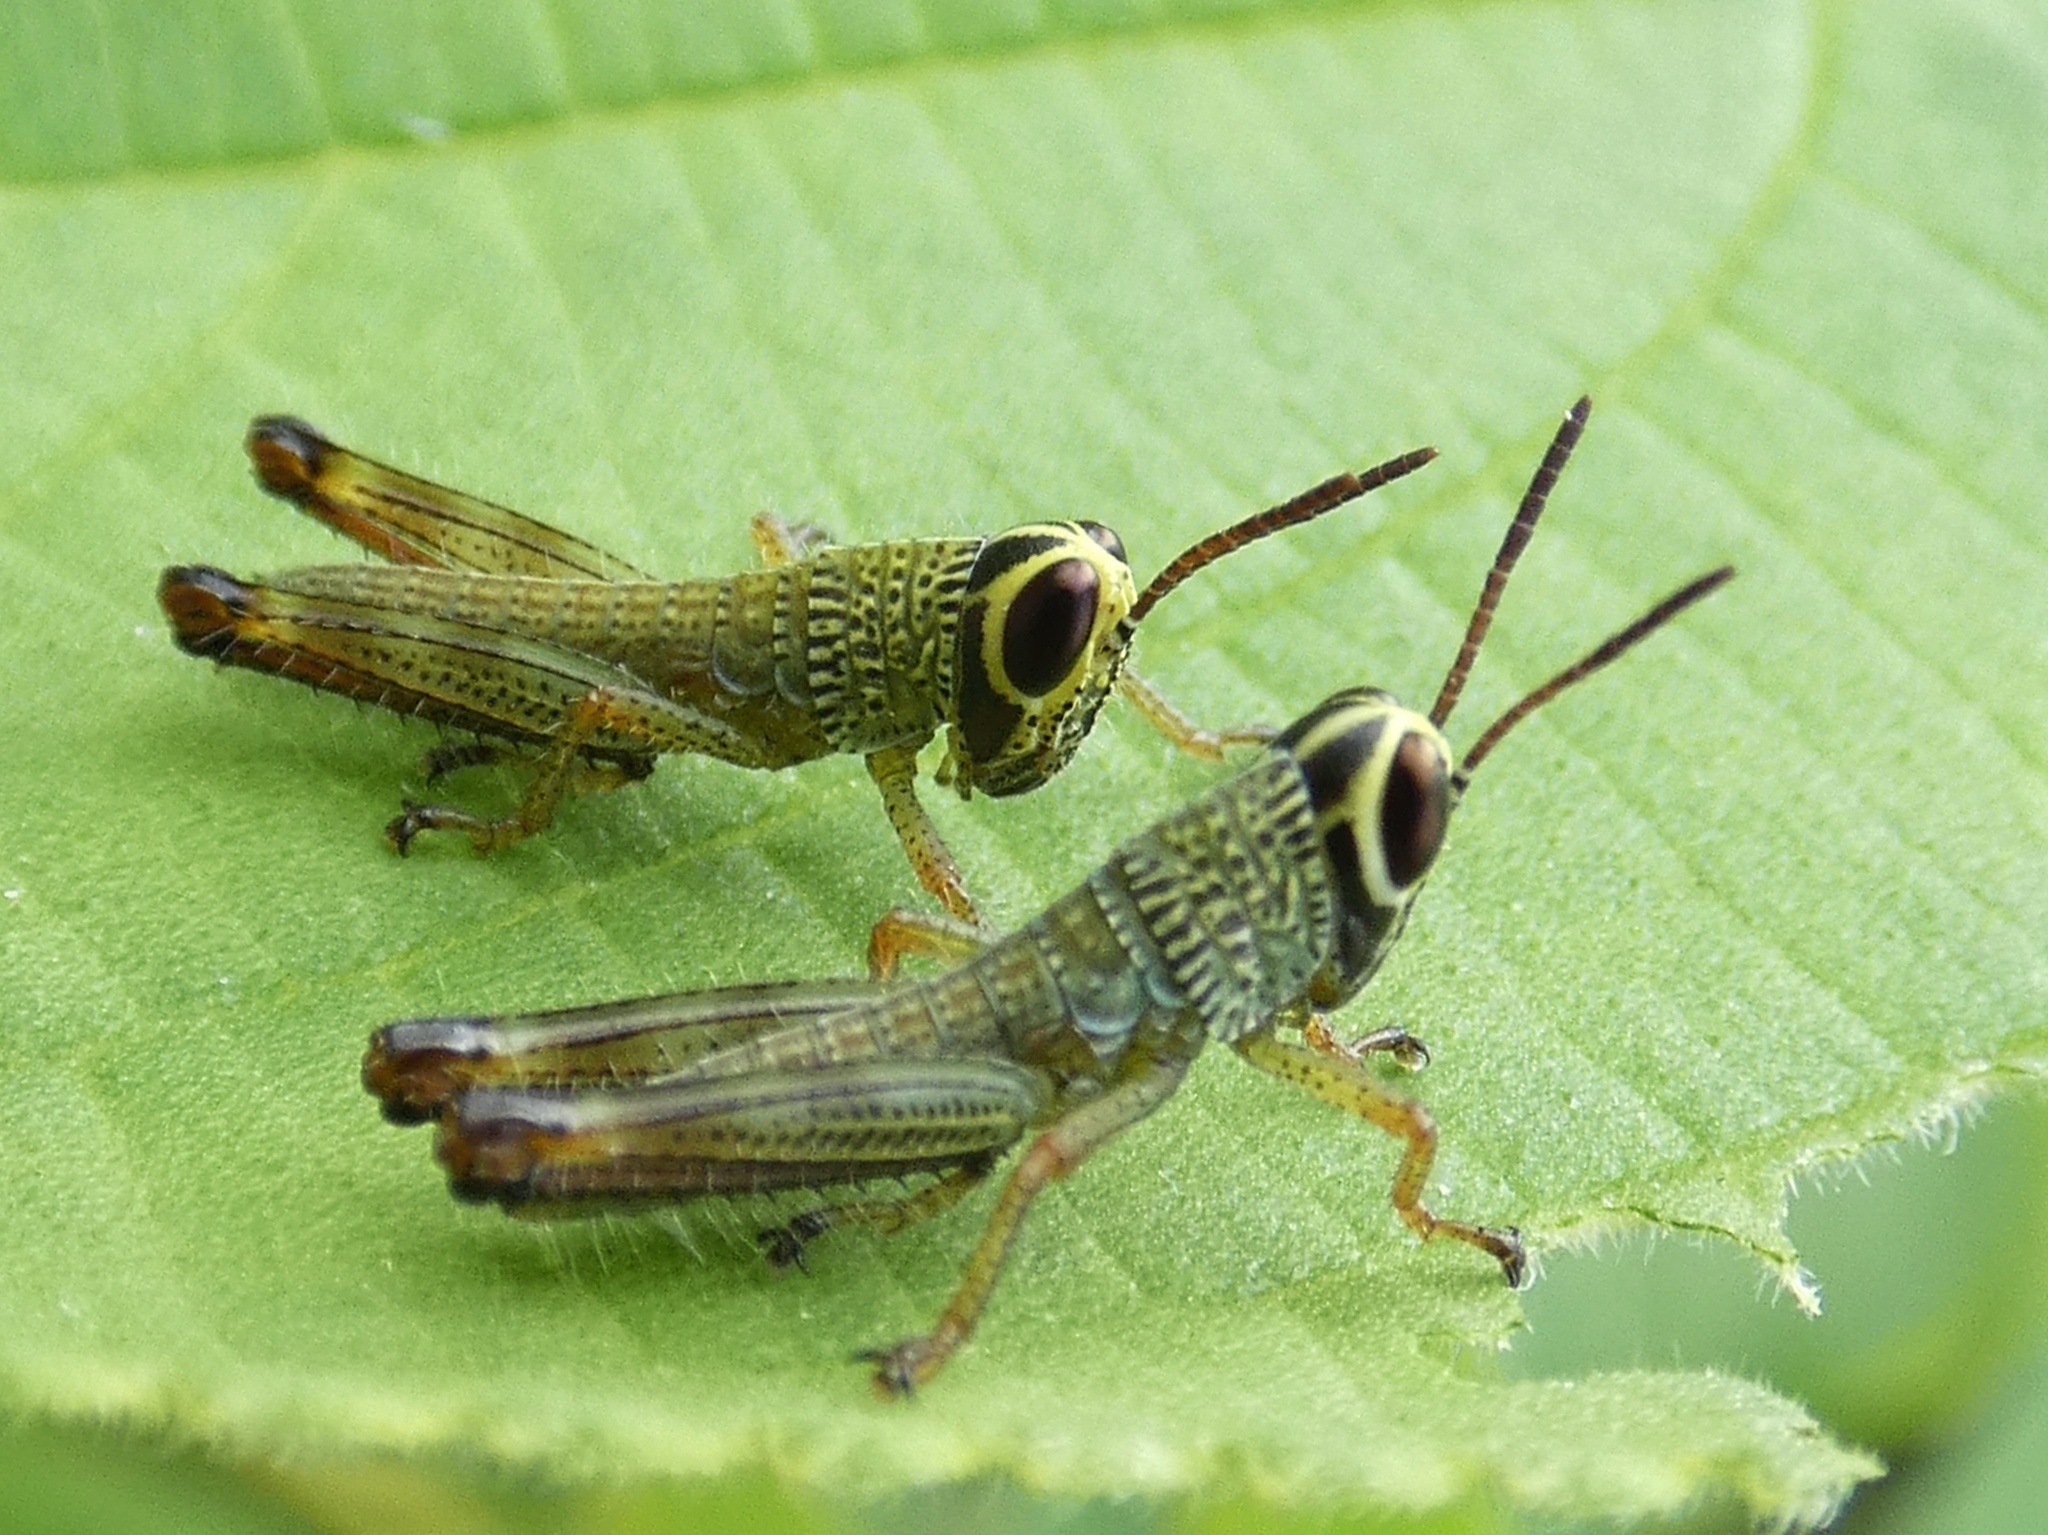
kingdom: Animalia
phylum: Arthropoda
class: Insecta
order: Orthoptera
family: Acrididae
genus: Melicodes
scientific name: Melicodes tenebrosus
